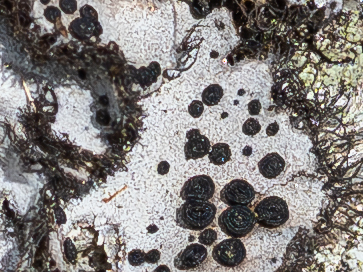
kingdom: Fungi
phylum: Ascomycota
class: Lecanoromycetes
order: Umbilicariales
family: Umbilicariaceae
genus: Umbilicaria
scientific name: Umbilicaria cylindrica
